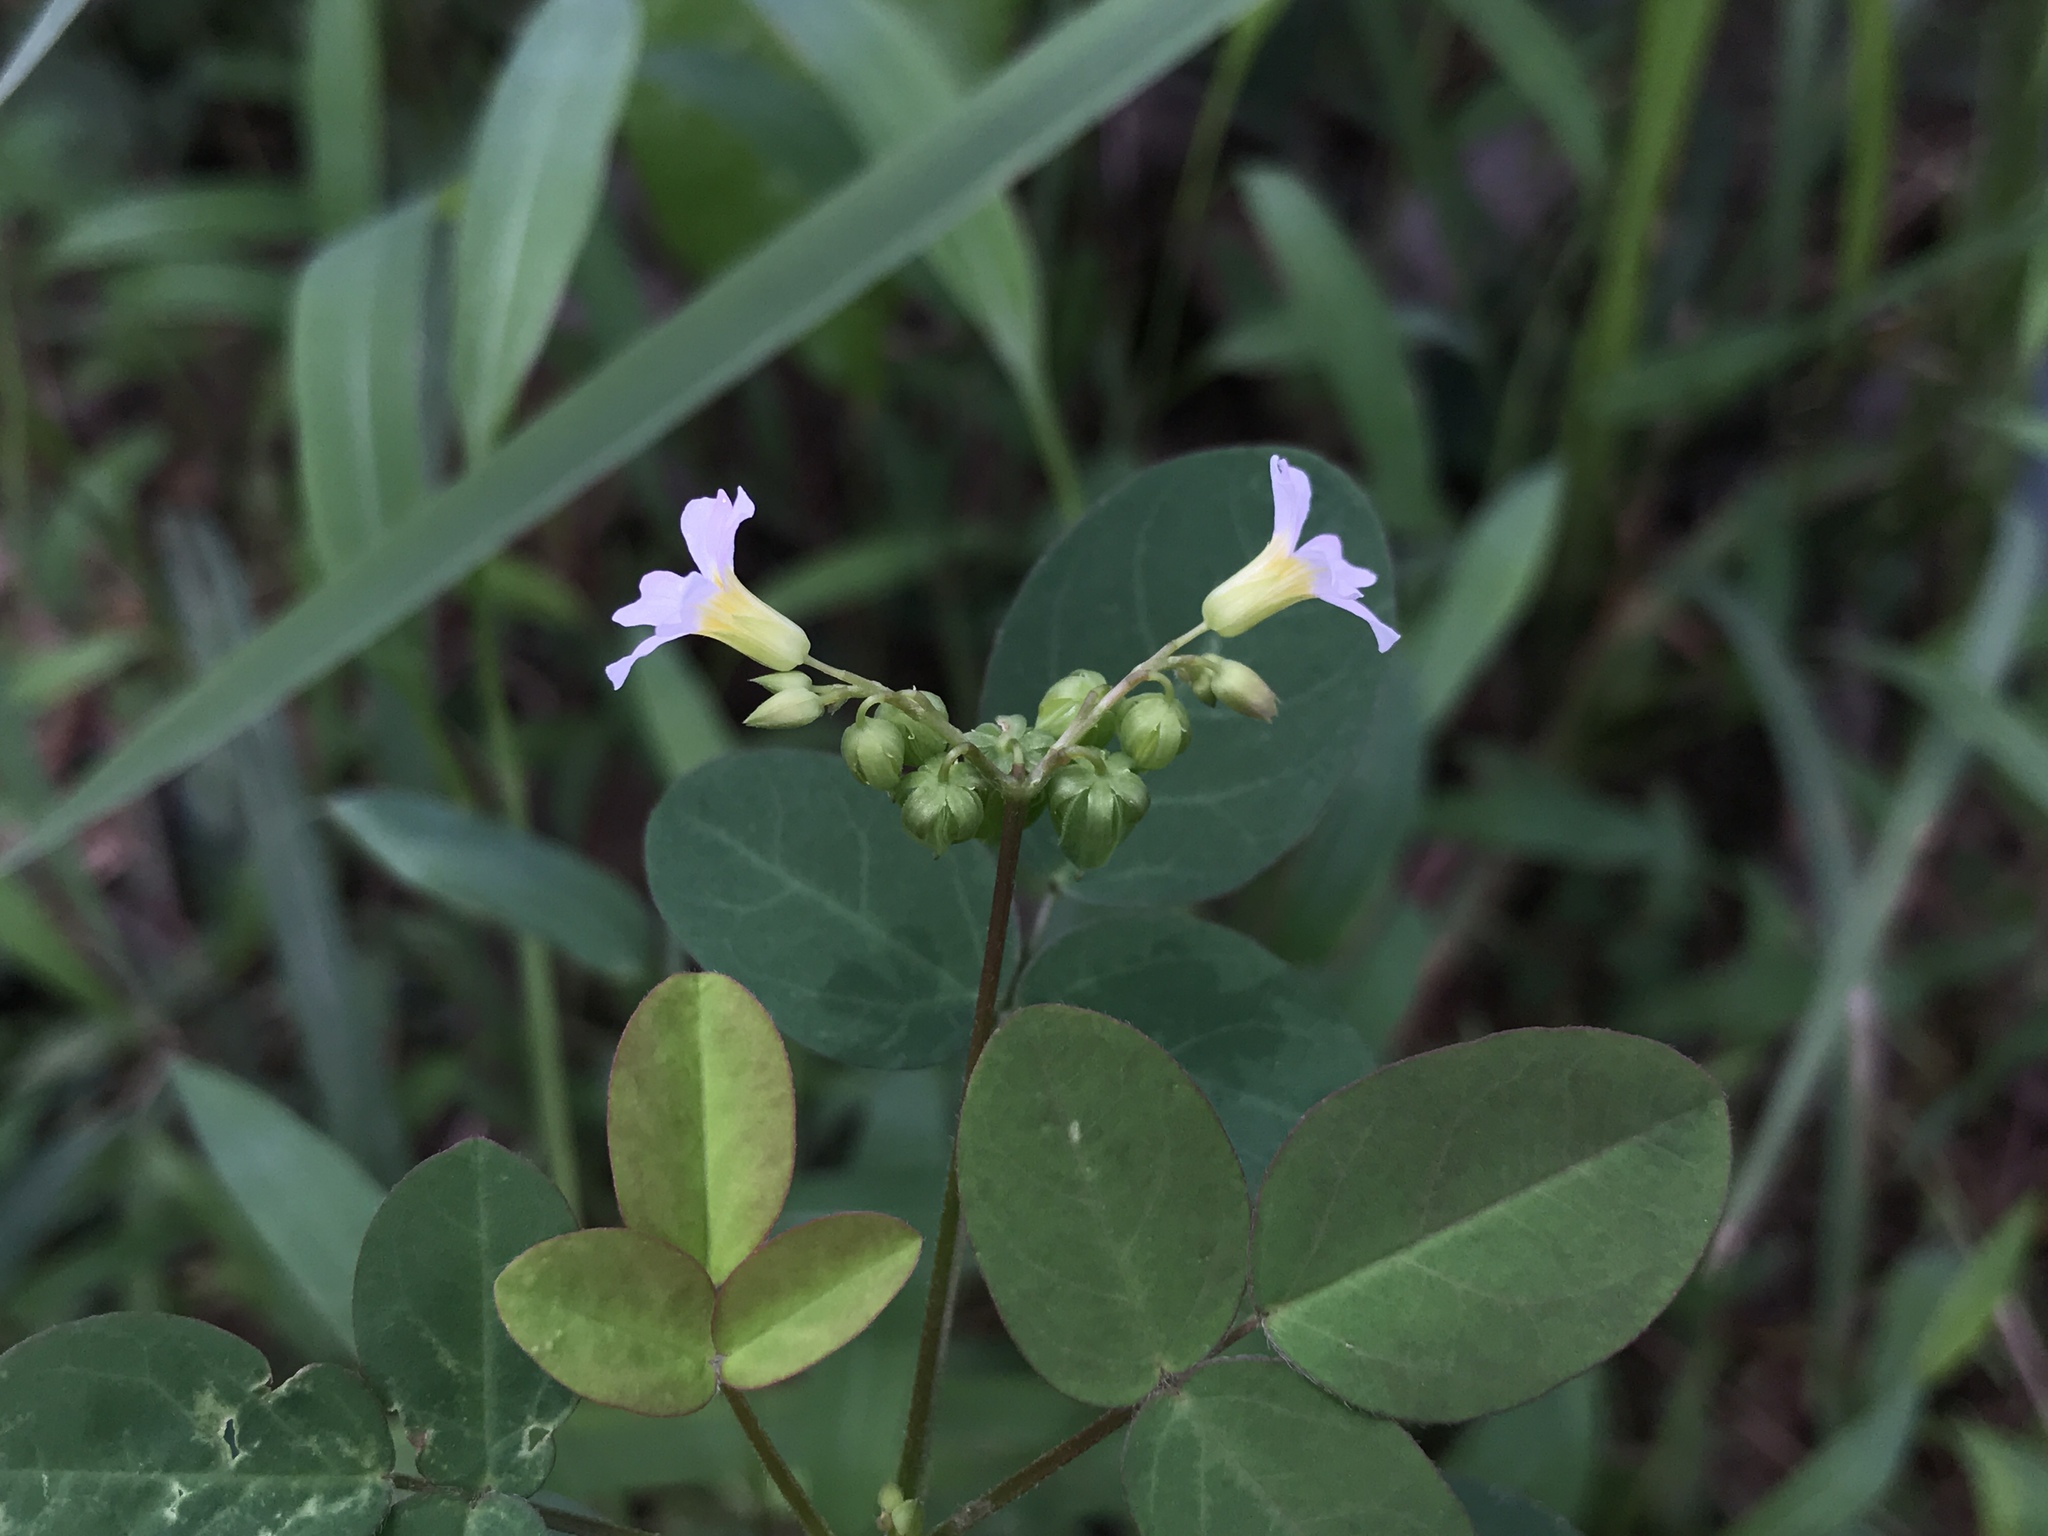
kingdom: Plantae
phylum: Tracheophyta
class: Magnoliopsida
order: Oxalidales
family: Oxalidaceae
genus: Oxalis
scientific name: Oxalis barrelieri
